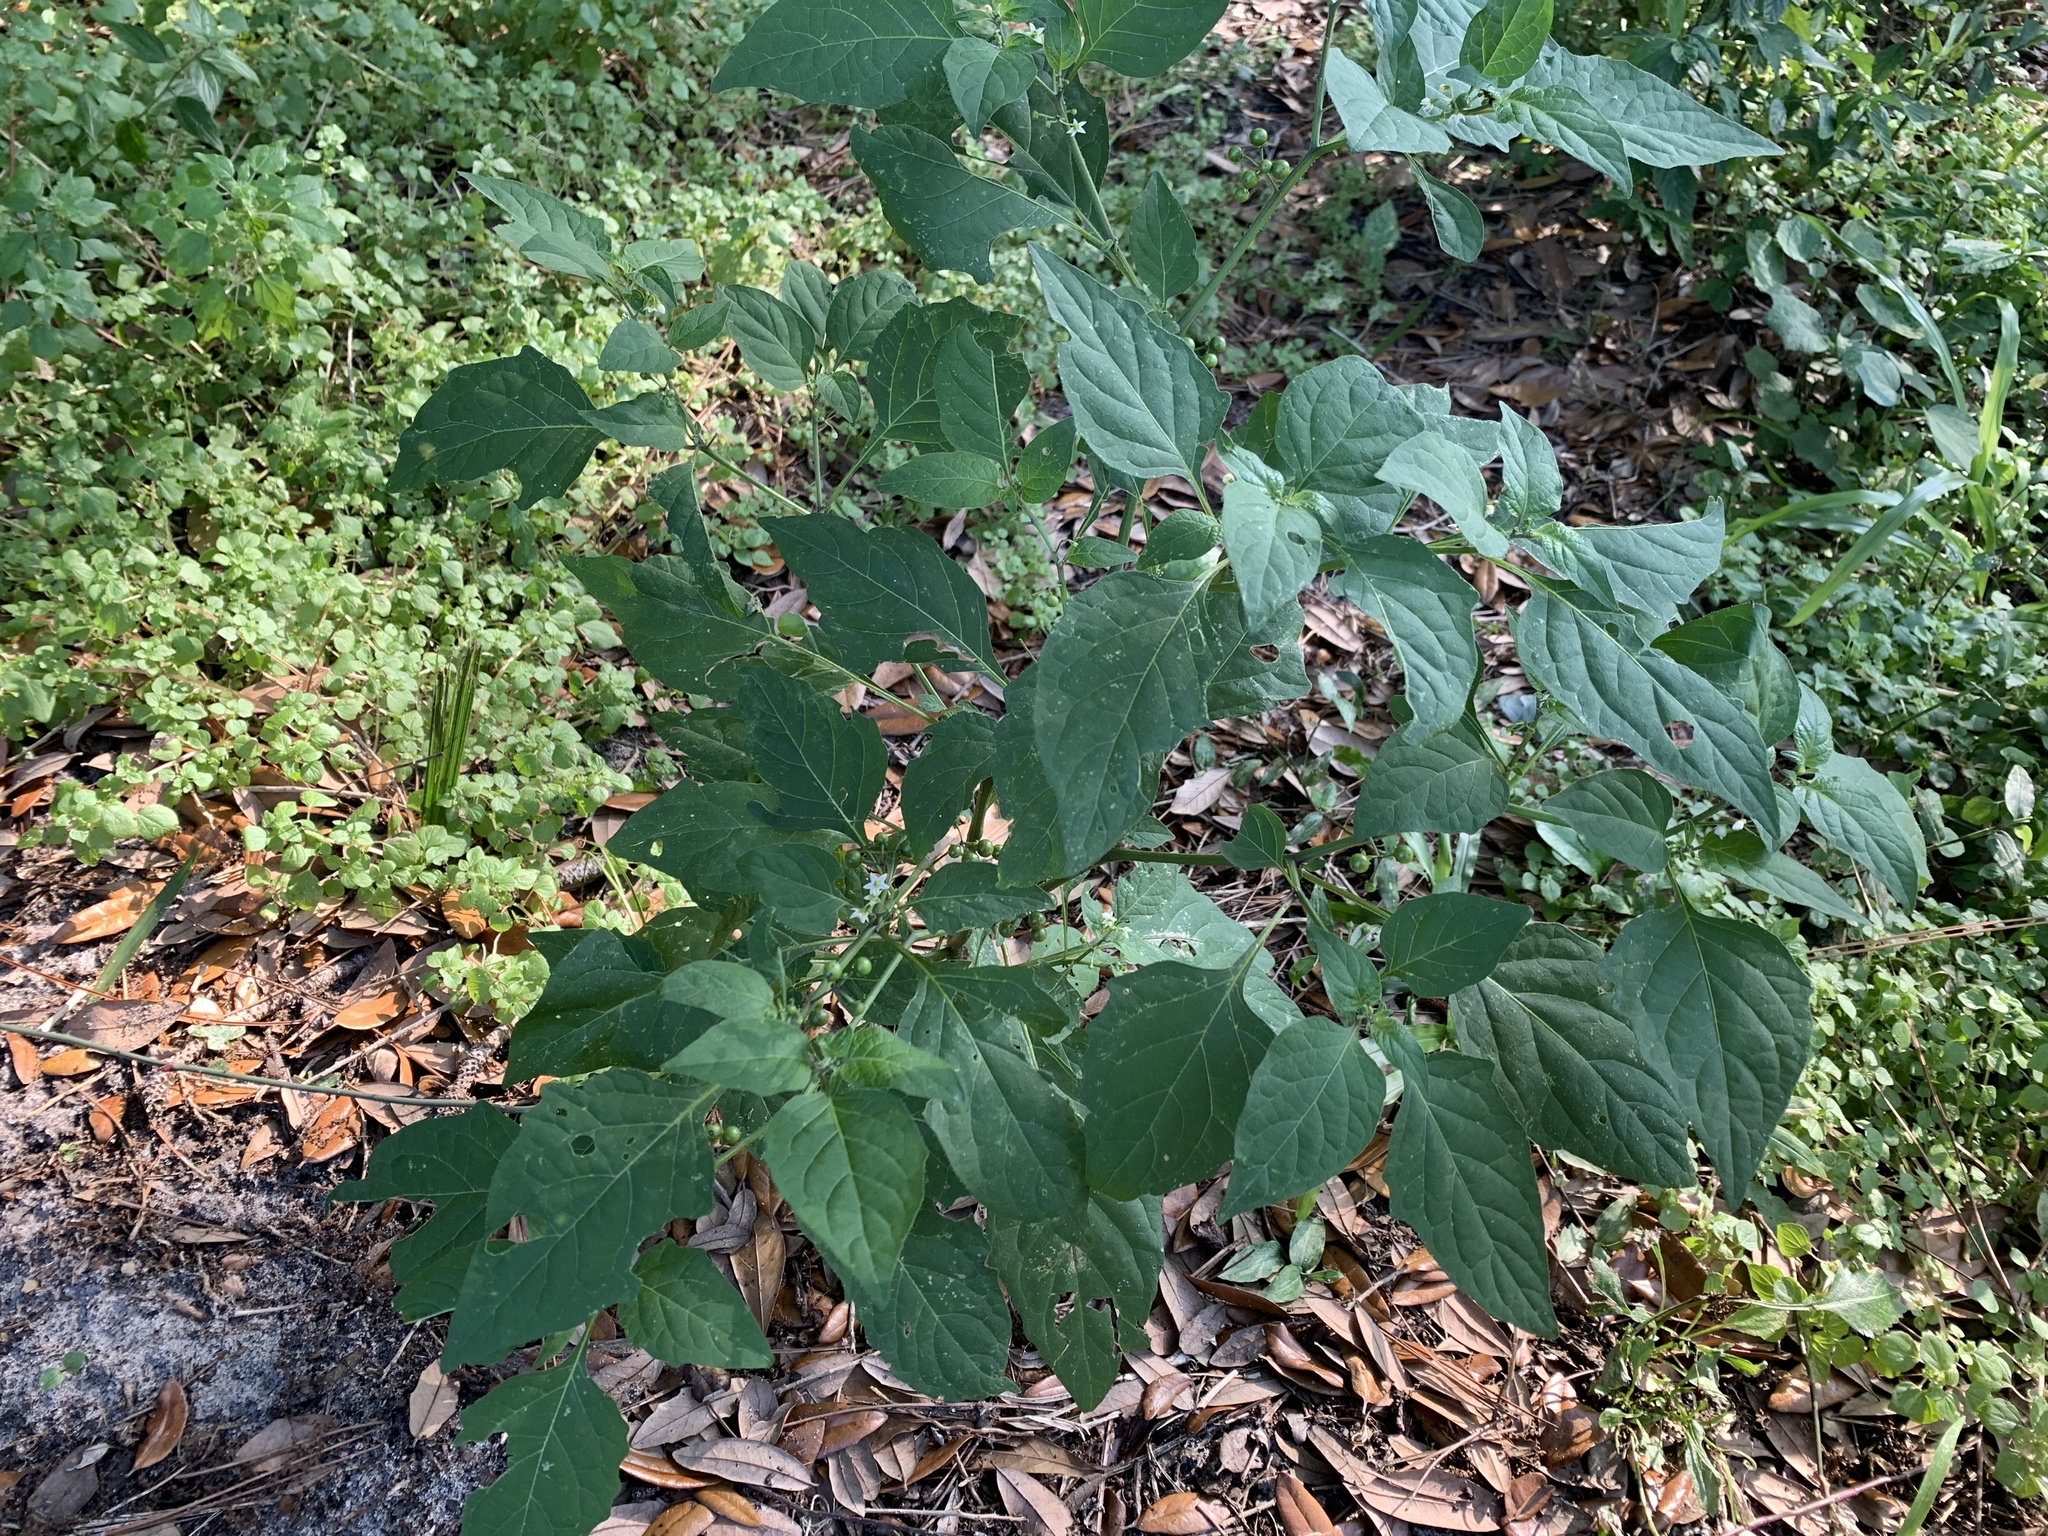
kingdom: Plantae
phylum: Tracheophyta
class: Magnoliopsida
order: Solanales
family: Solanaceae
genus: Solanum
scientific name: Solanum americanum
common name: American black nightshade
